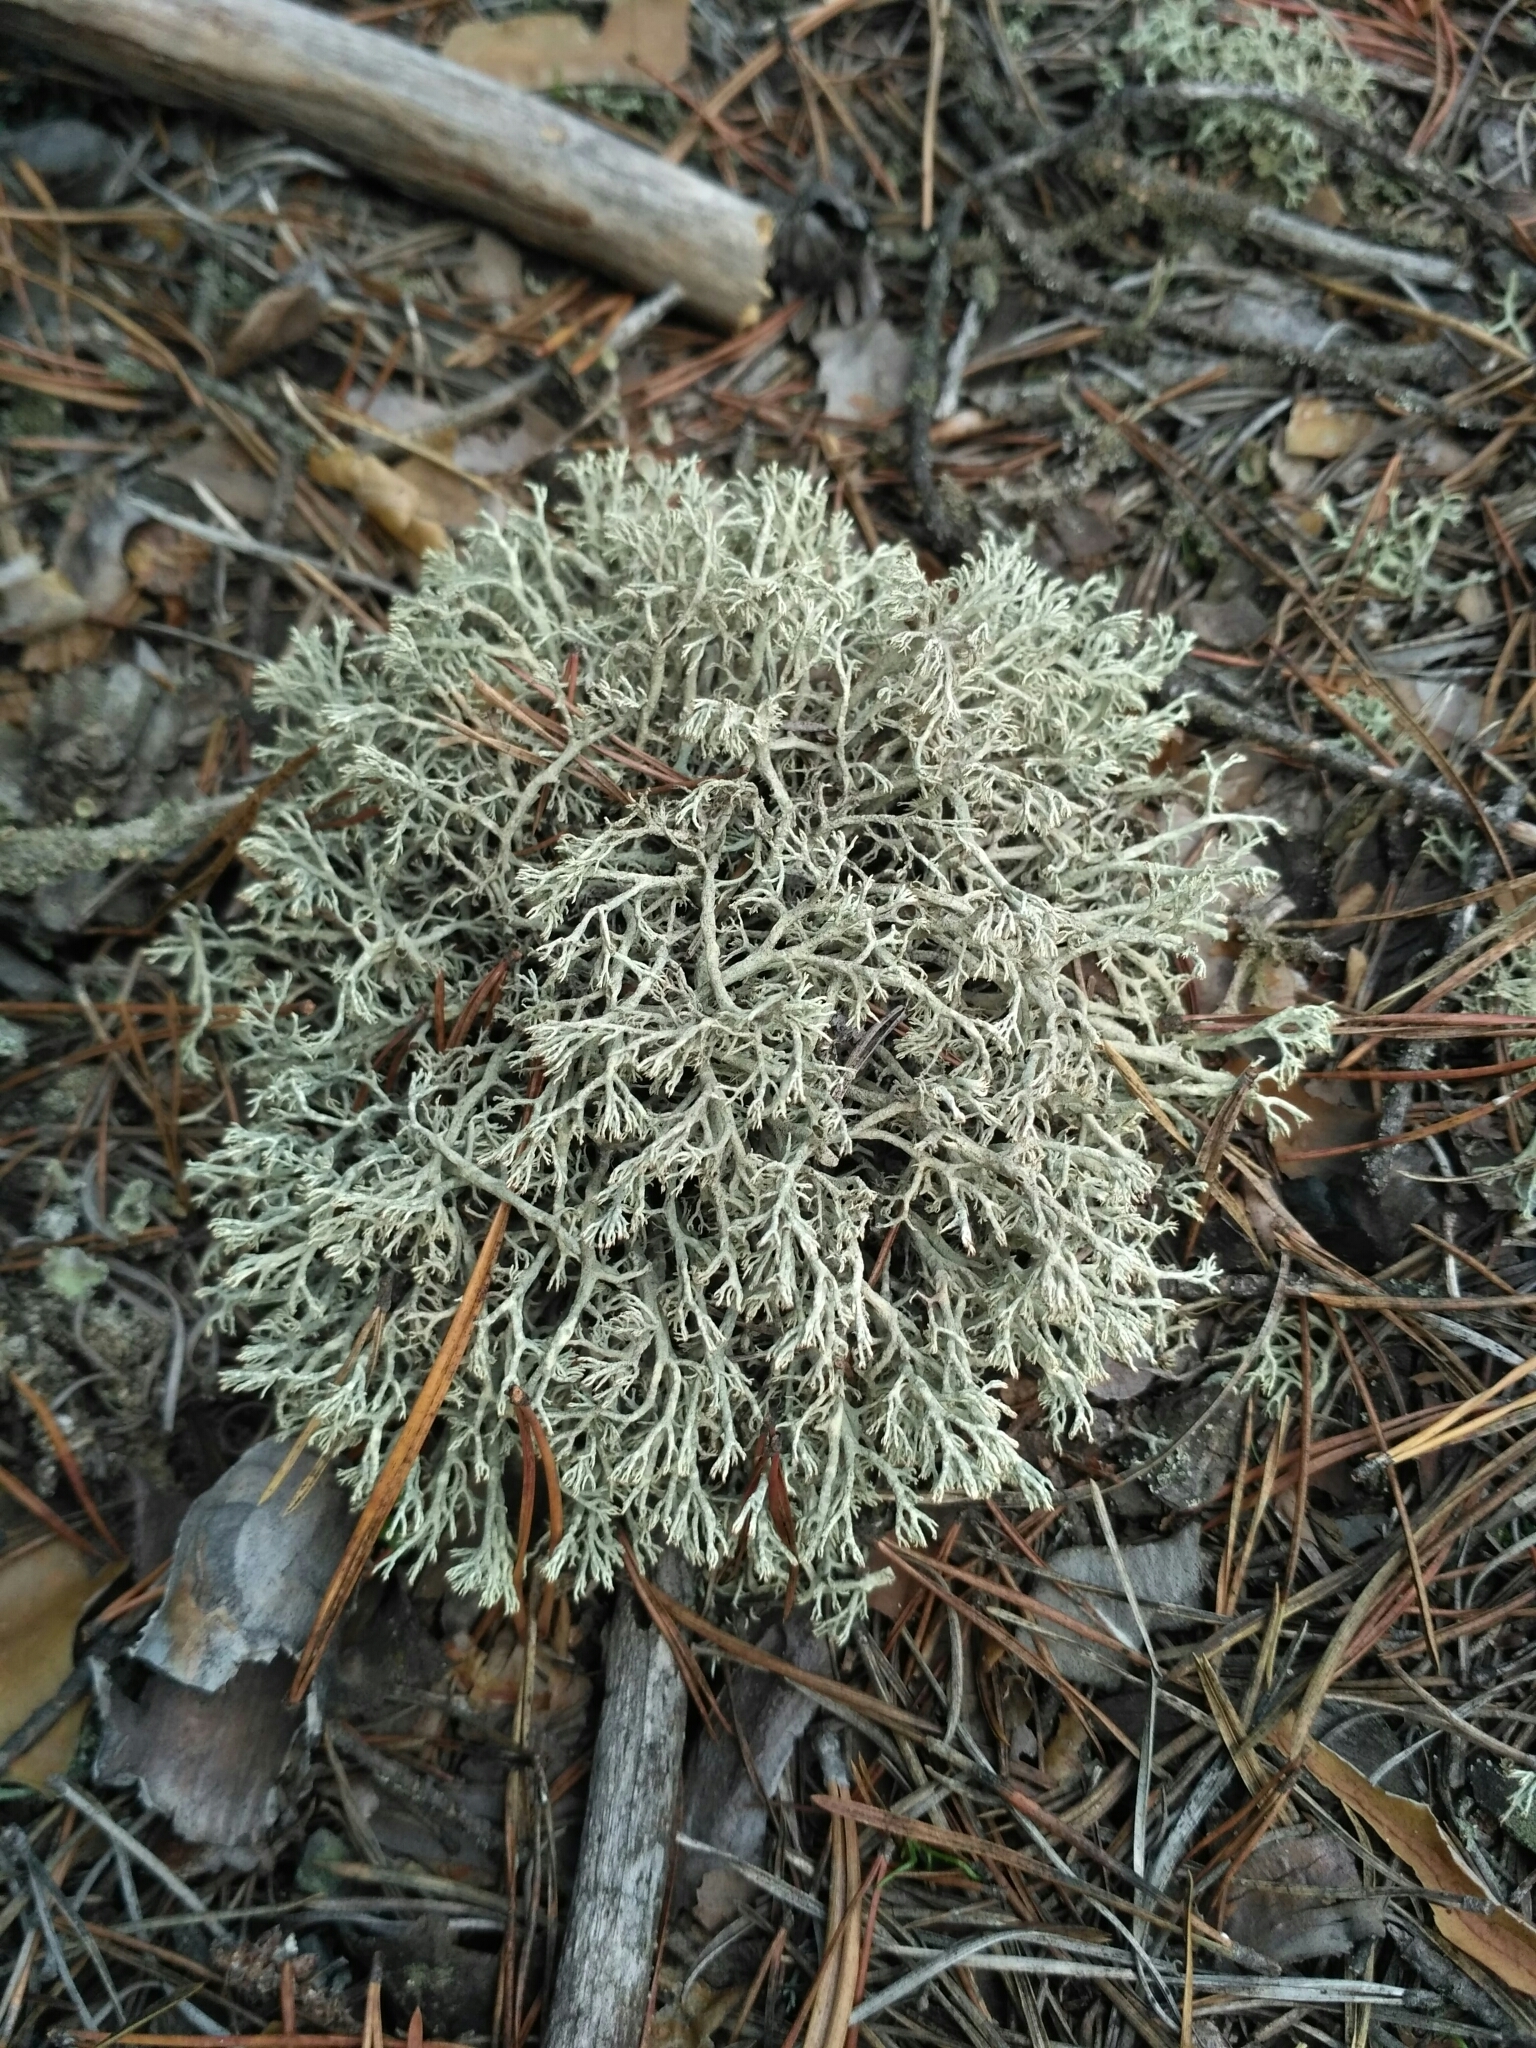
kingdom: Fungi
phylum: Ascomycota
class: Lecanoromycetes
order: Lecanorales
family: Cladoniaceae
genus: Cladonia
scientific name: Cladonia mitis
